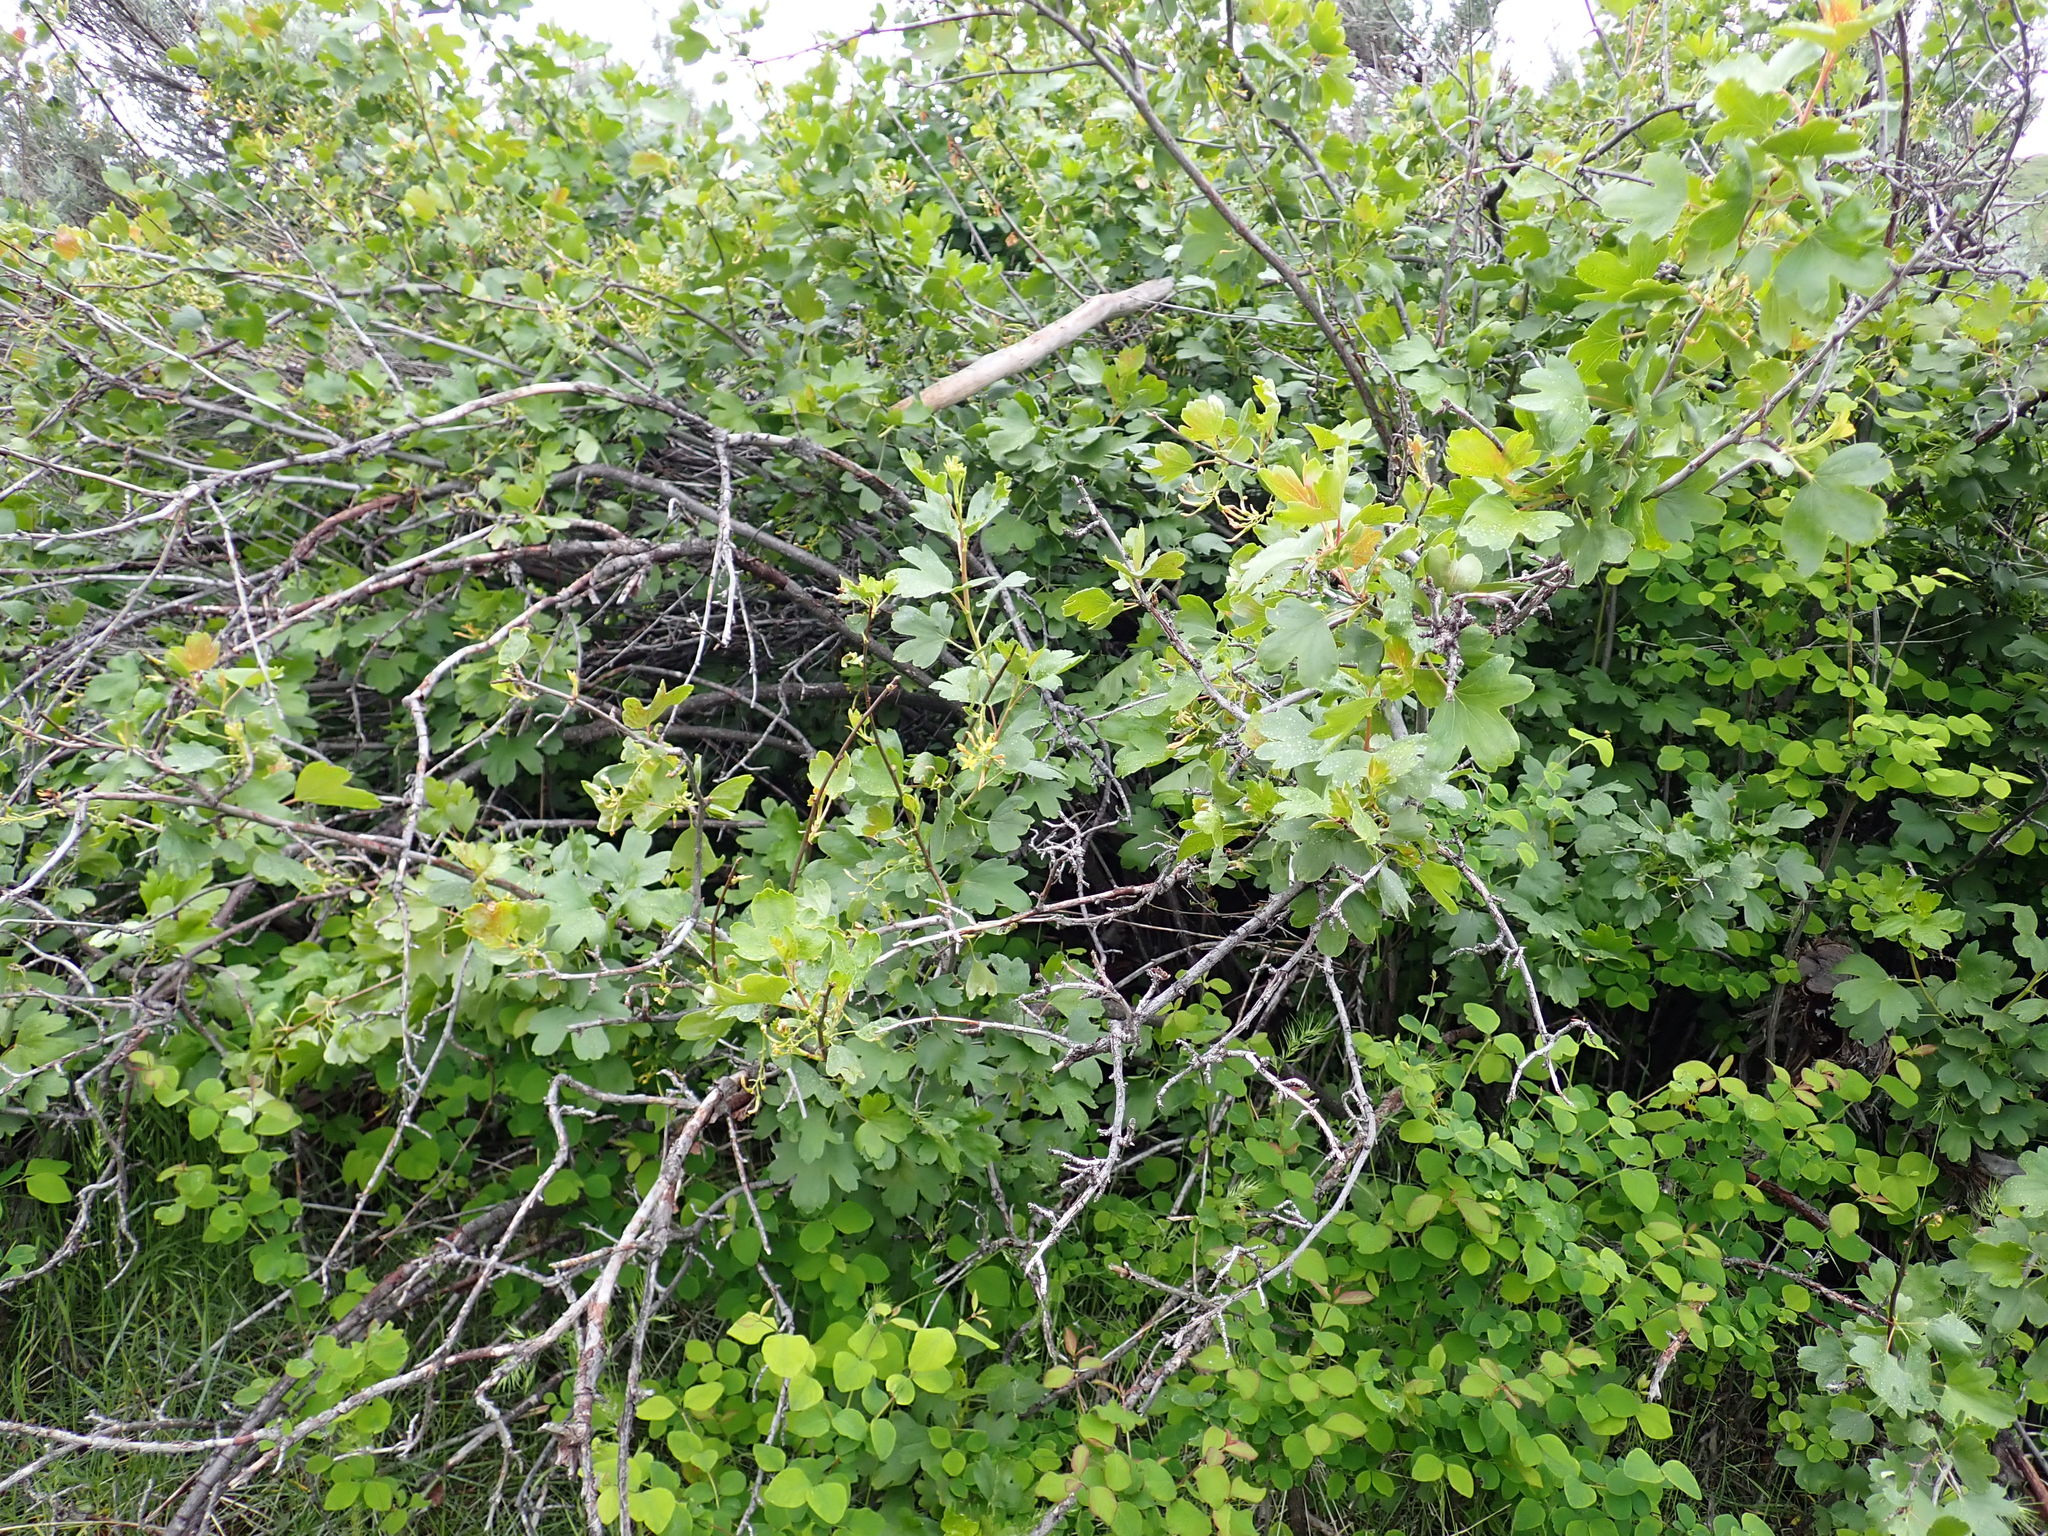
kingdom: Plantae
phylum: Tracheophyta
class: Magnoliopsida
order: Saxifragales
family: Grossulariaceae
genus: Ribes
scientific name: Ribes aureum
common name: Golden currant
